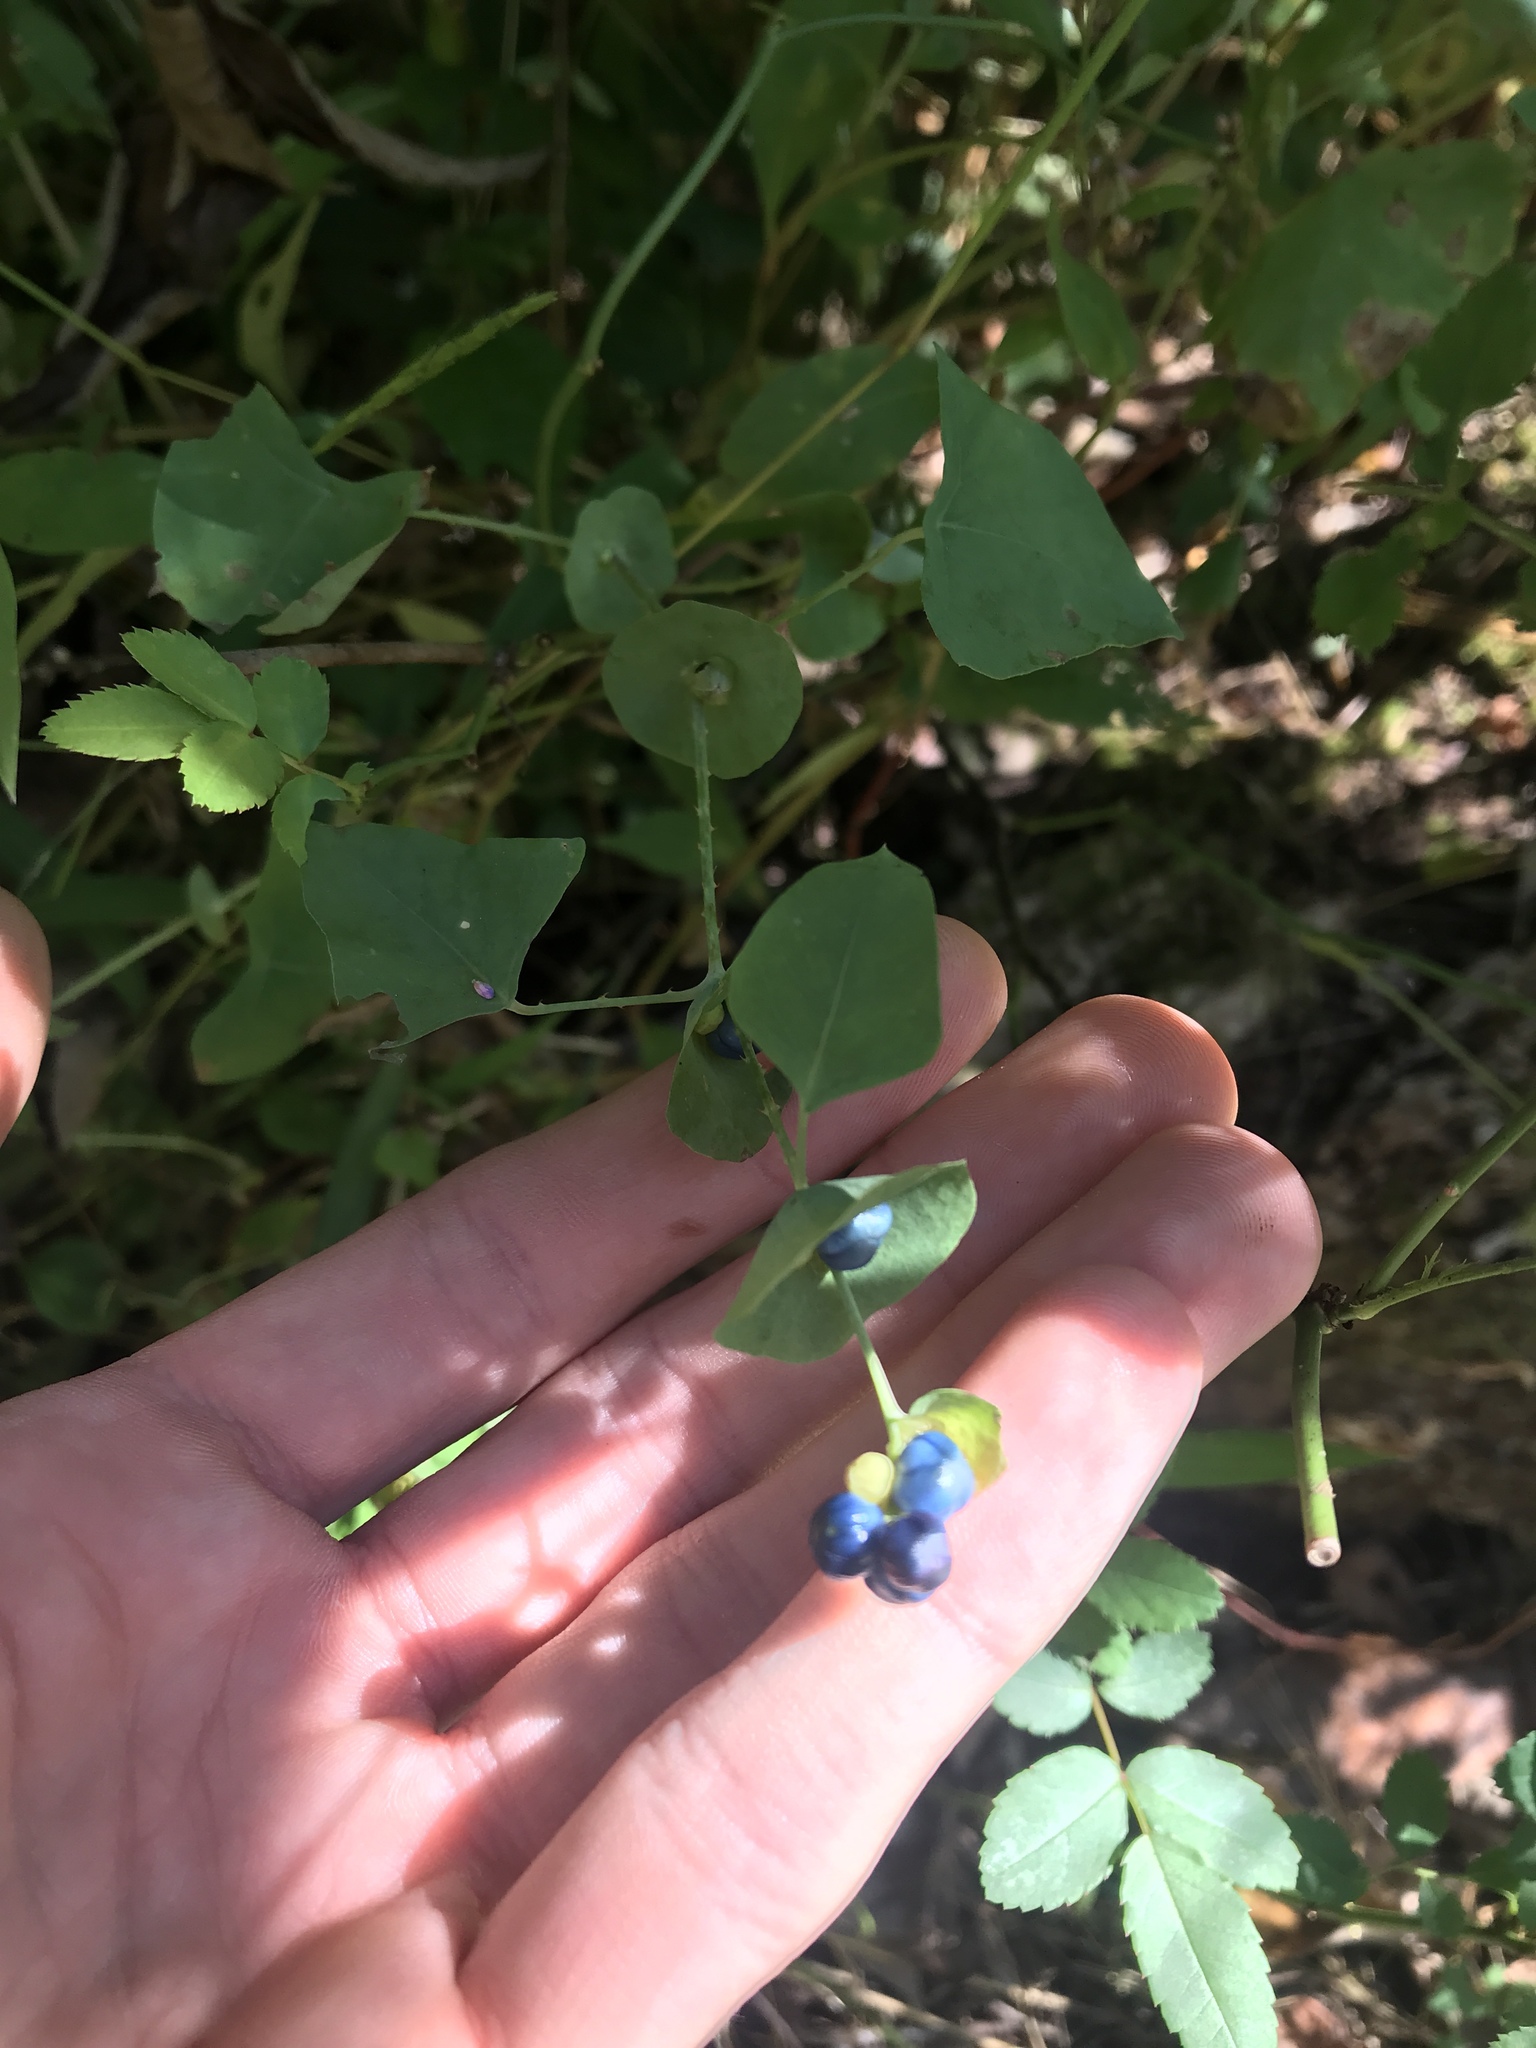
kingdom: Plantae
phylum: Tracheophyta
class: Magnoliopsida
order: Caryophyllales
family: Polygonaceae
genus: Persicaria
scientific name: Persicaria perfoliata
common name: Asiatic tearthumb
